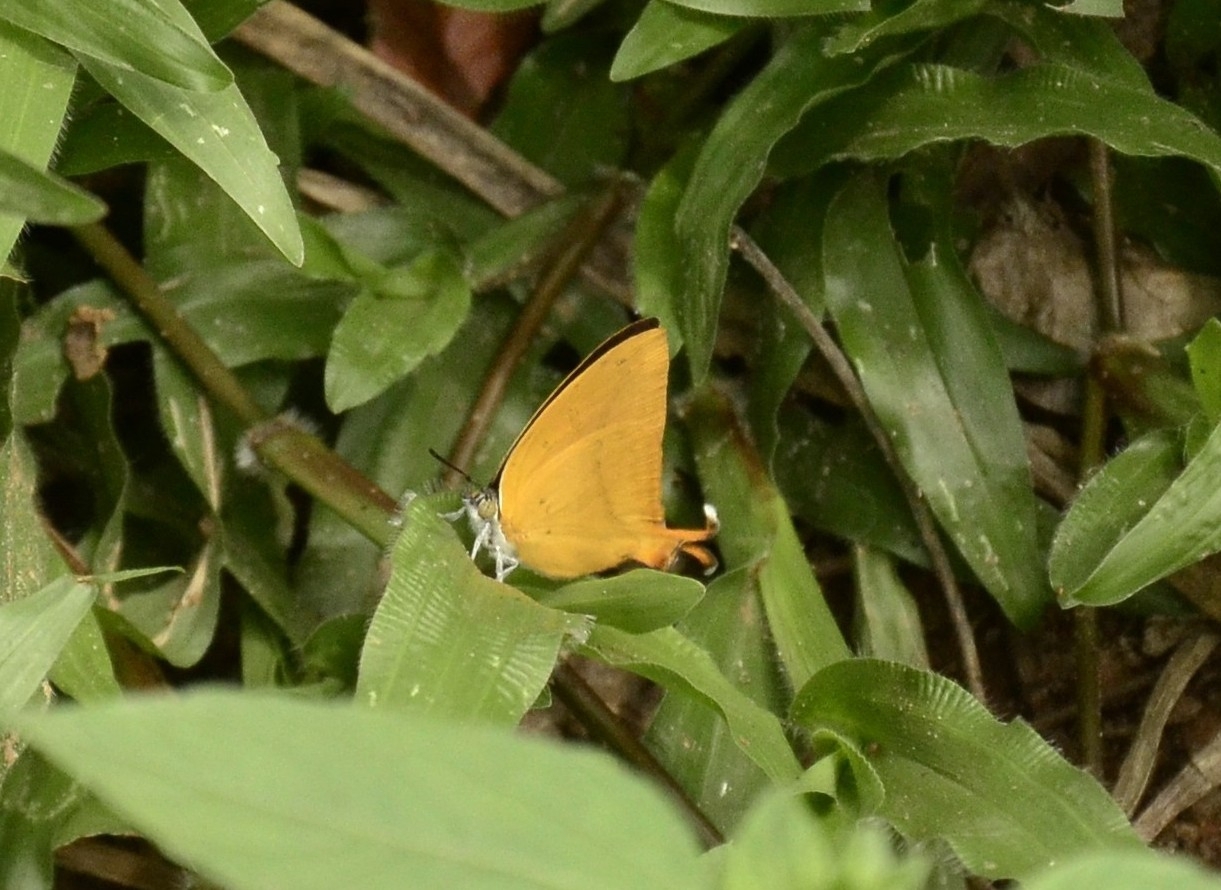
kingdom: Animalia
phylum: Arthropoda
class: Insecta
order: Lepidoptera
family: Lycaenidae
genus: Loxura
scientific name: Loxura atymnus
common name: Common yamfly
